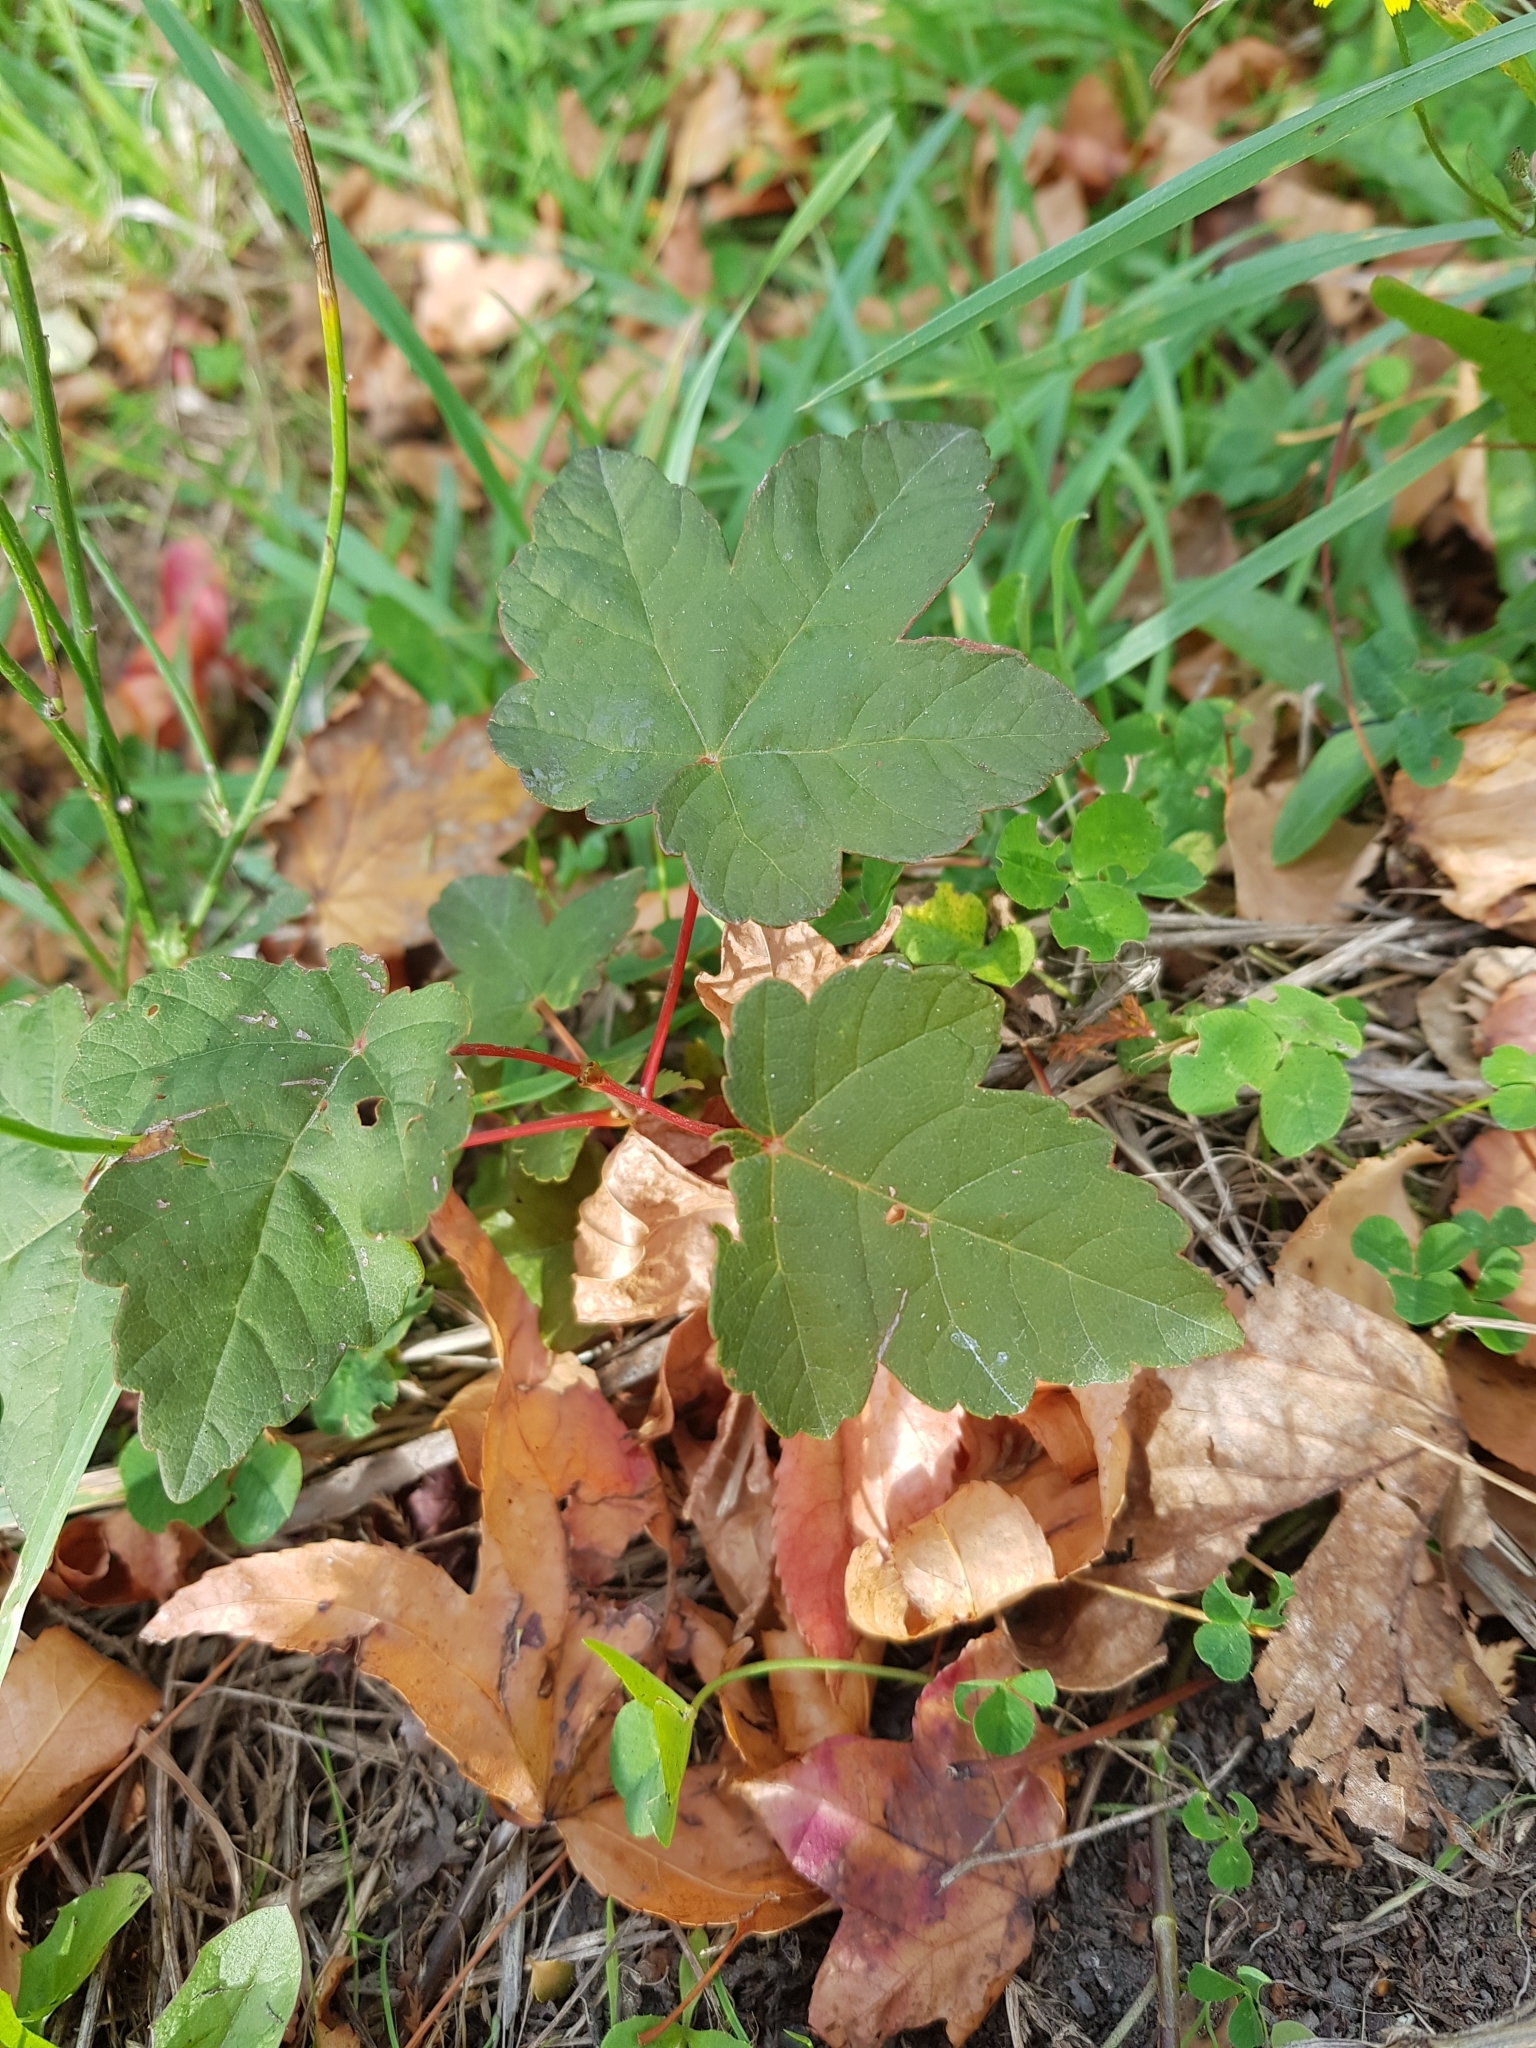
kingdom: Plantae
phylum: Tracheophyta
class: Magnoliopsida
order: Sapindales
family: Sapindaceae
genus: Acer
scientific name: Acer pseudoplatanus
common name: Sycamore
